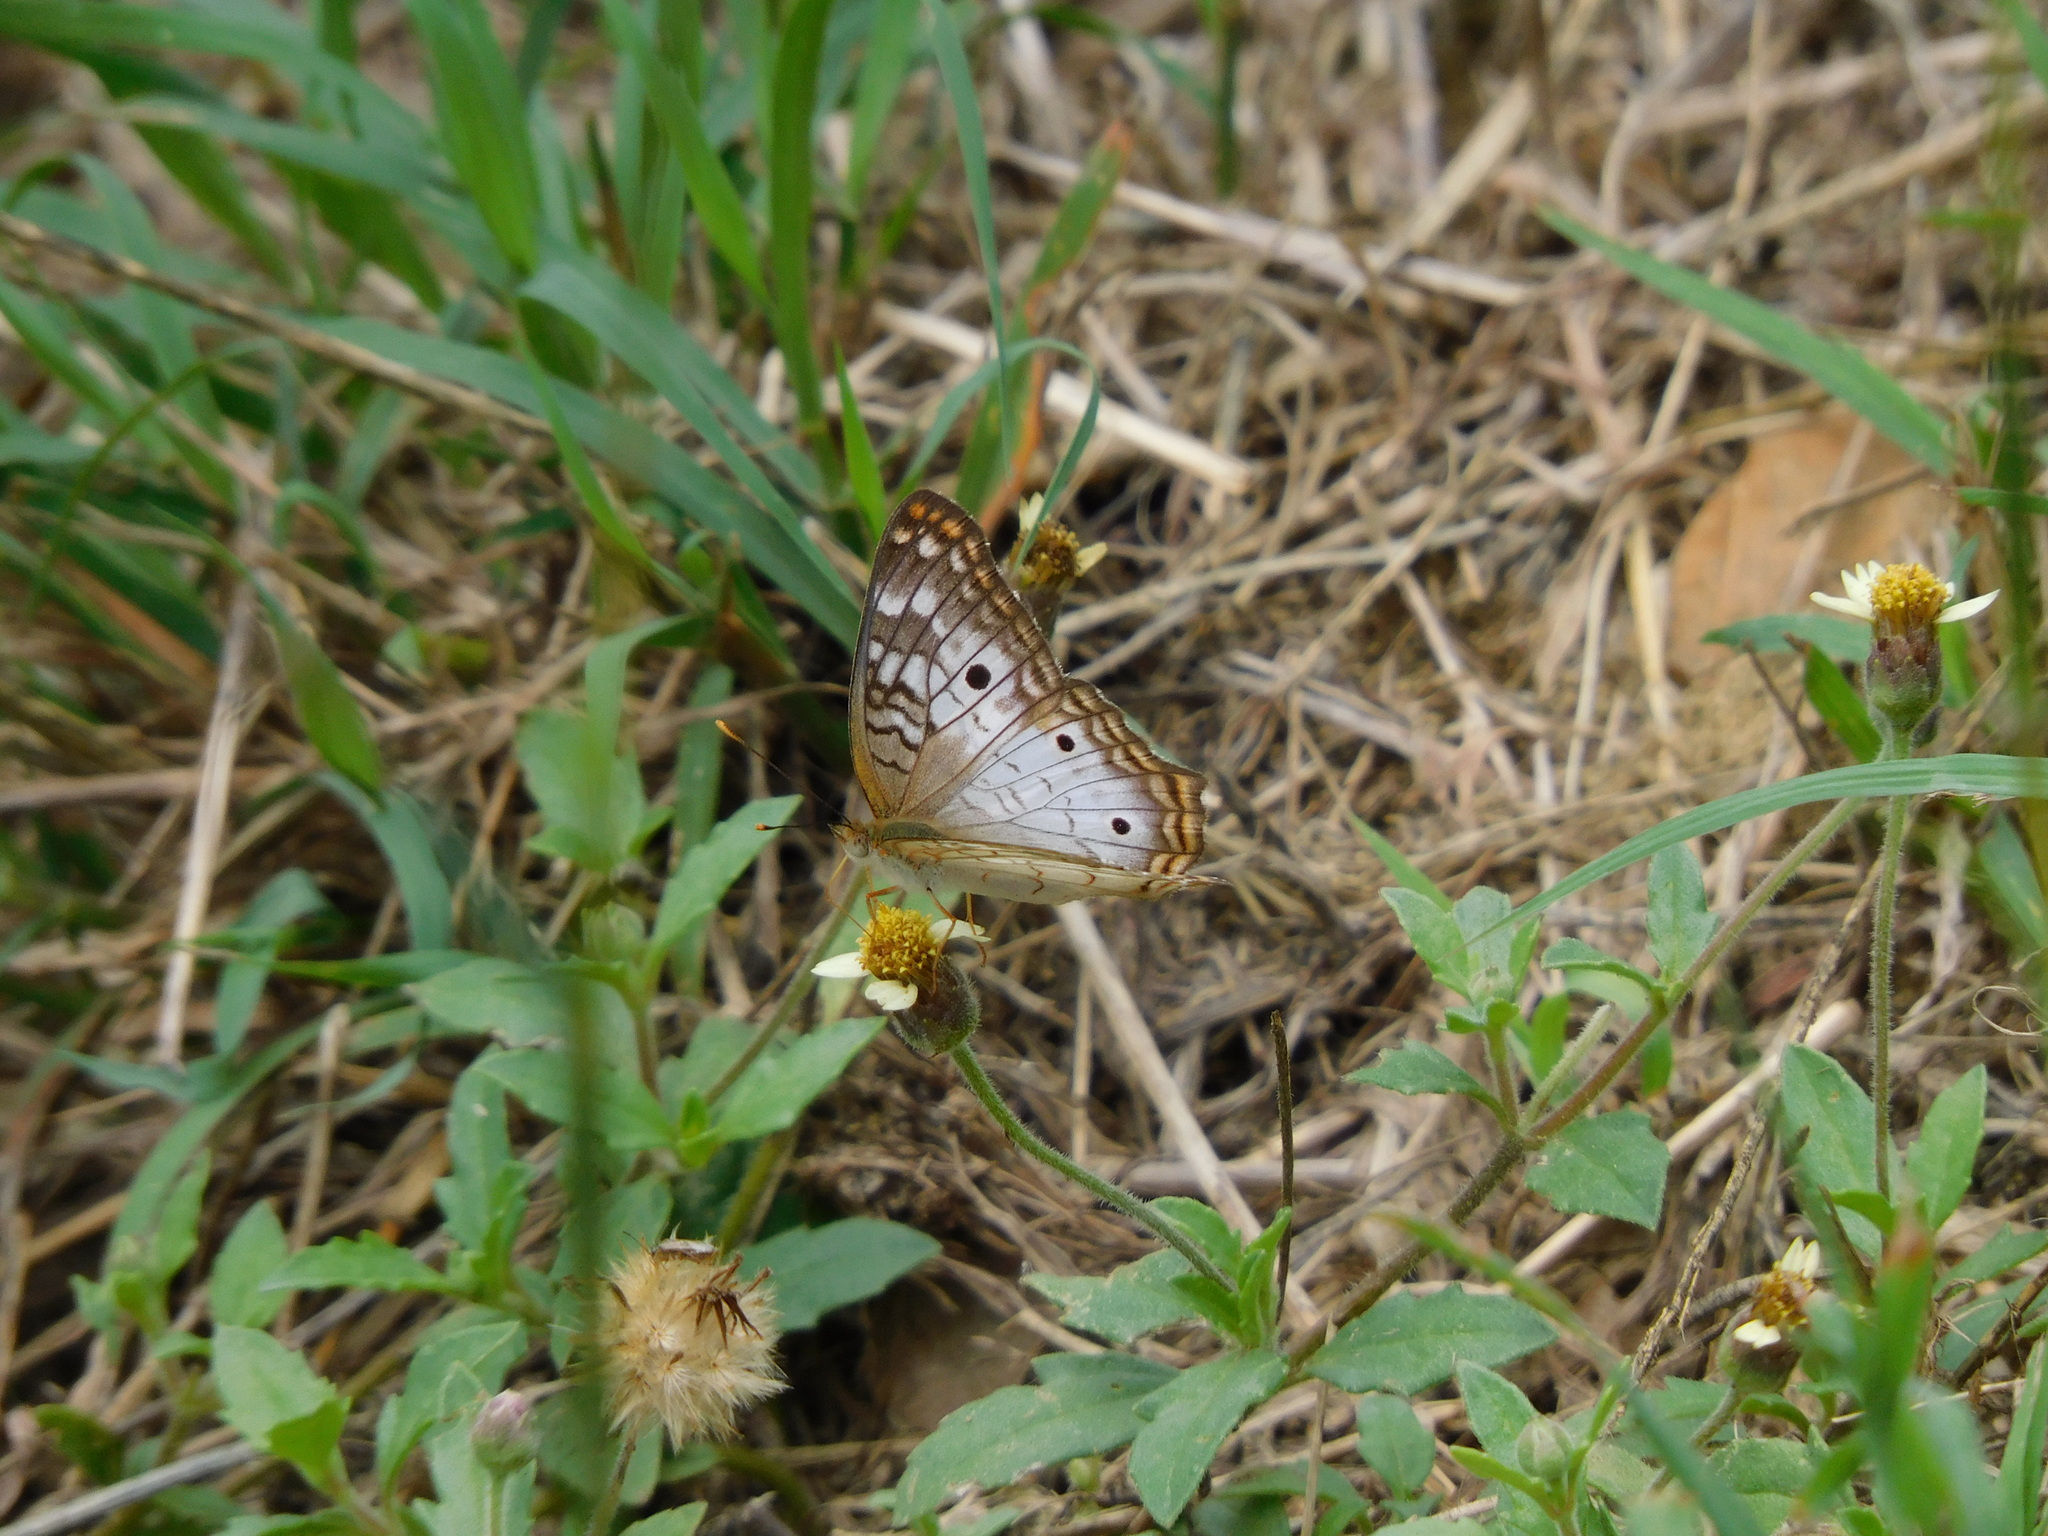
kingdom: Animalia
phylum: Arthropoda
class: Insecta
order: Lepidoptera
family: Nymphalidae
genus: Anartia
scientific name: Anartia jatrophae
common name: White peacock
